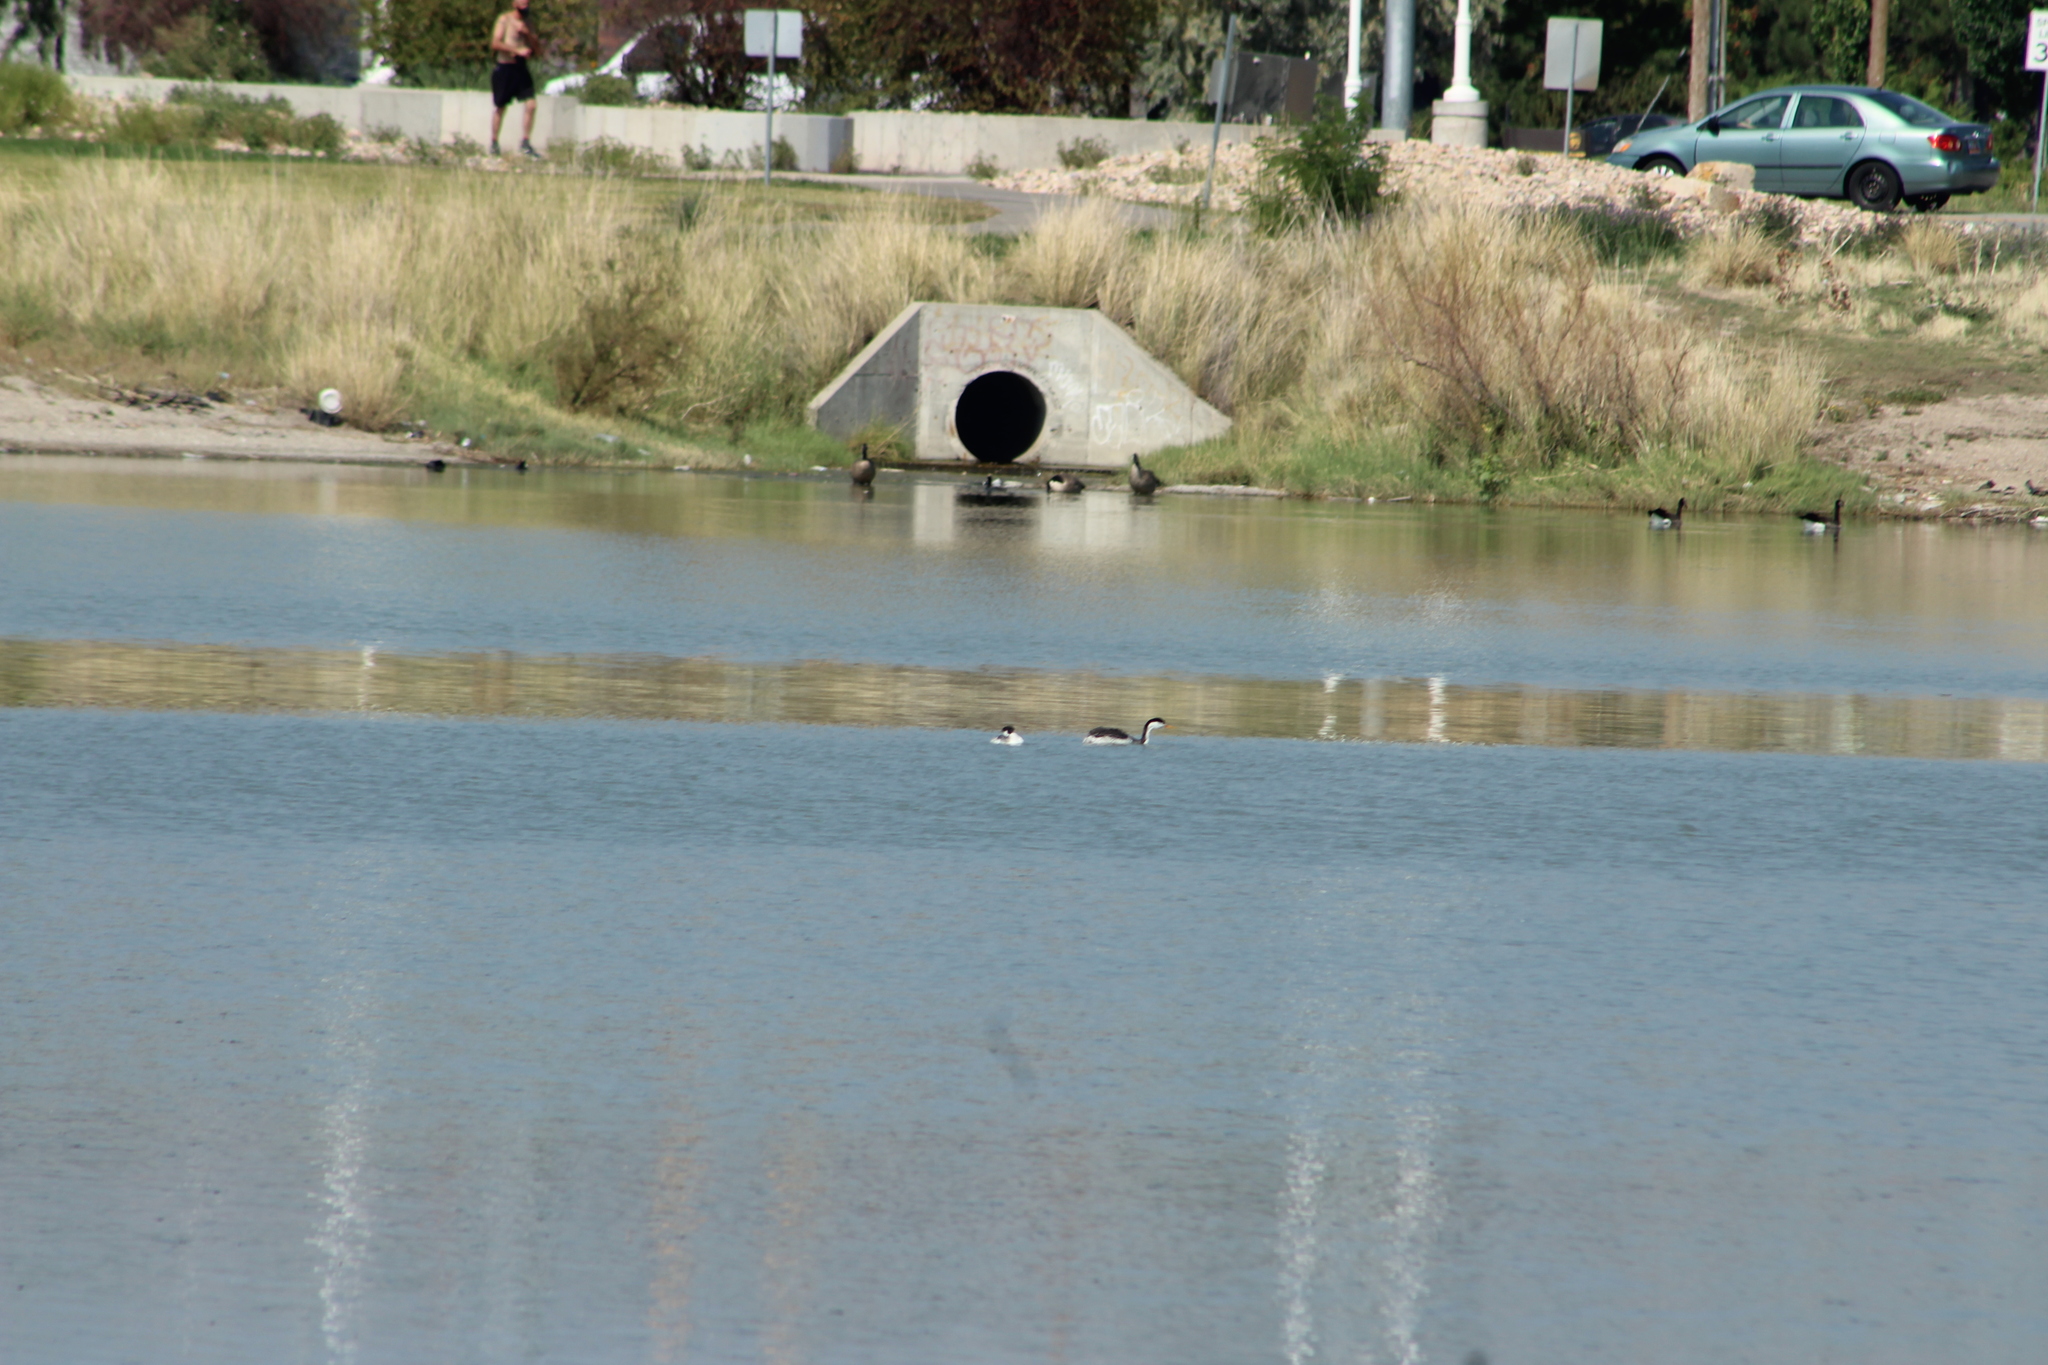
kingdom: Animalia
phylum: Chordata
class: Aves
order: Podicipediformes
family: Podicipedidae
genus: Aechmophorus
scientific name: Aechmophorus clarkii
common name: Clark's grebe
